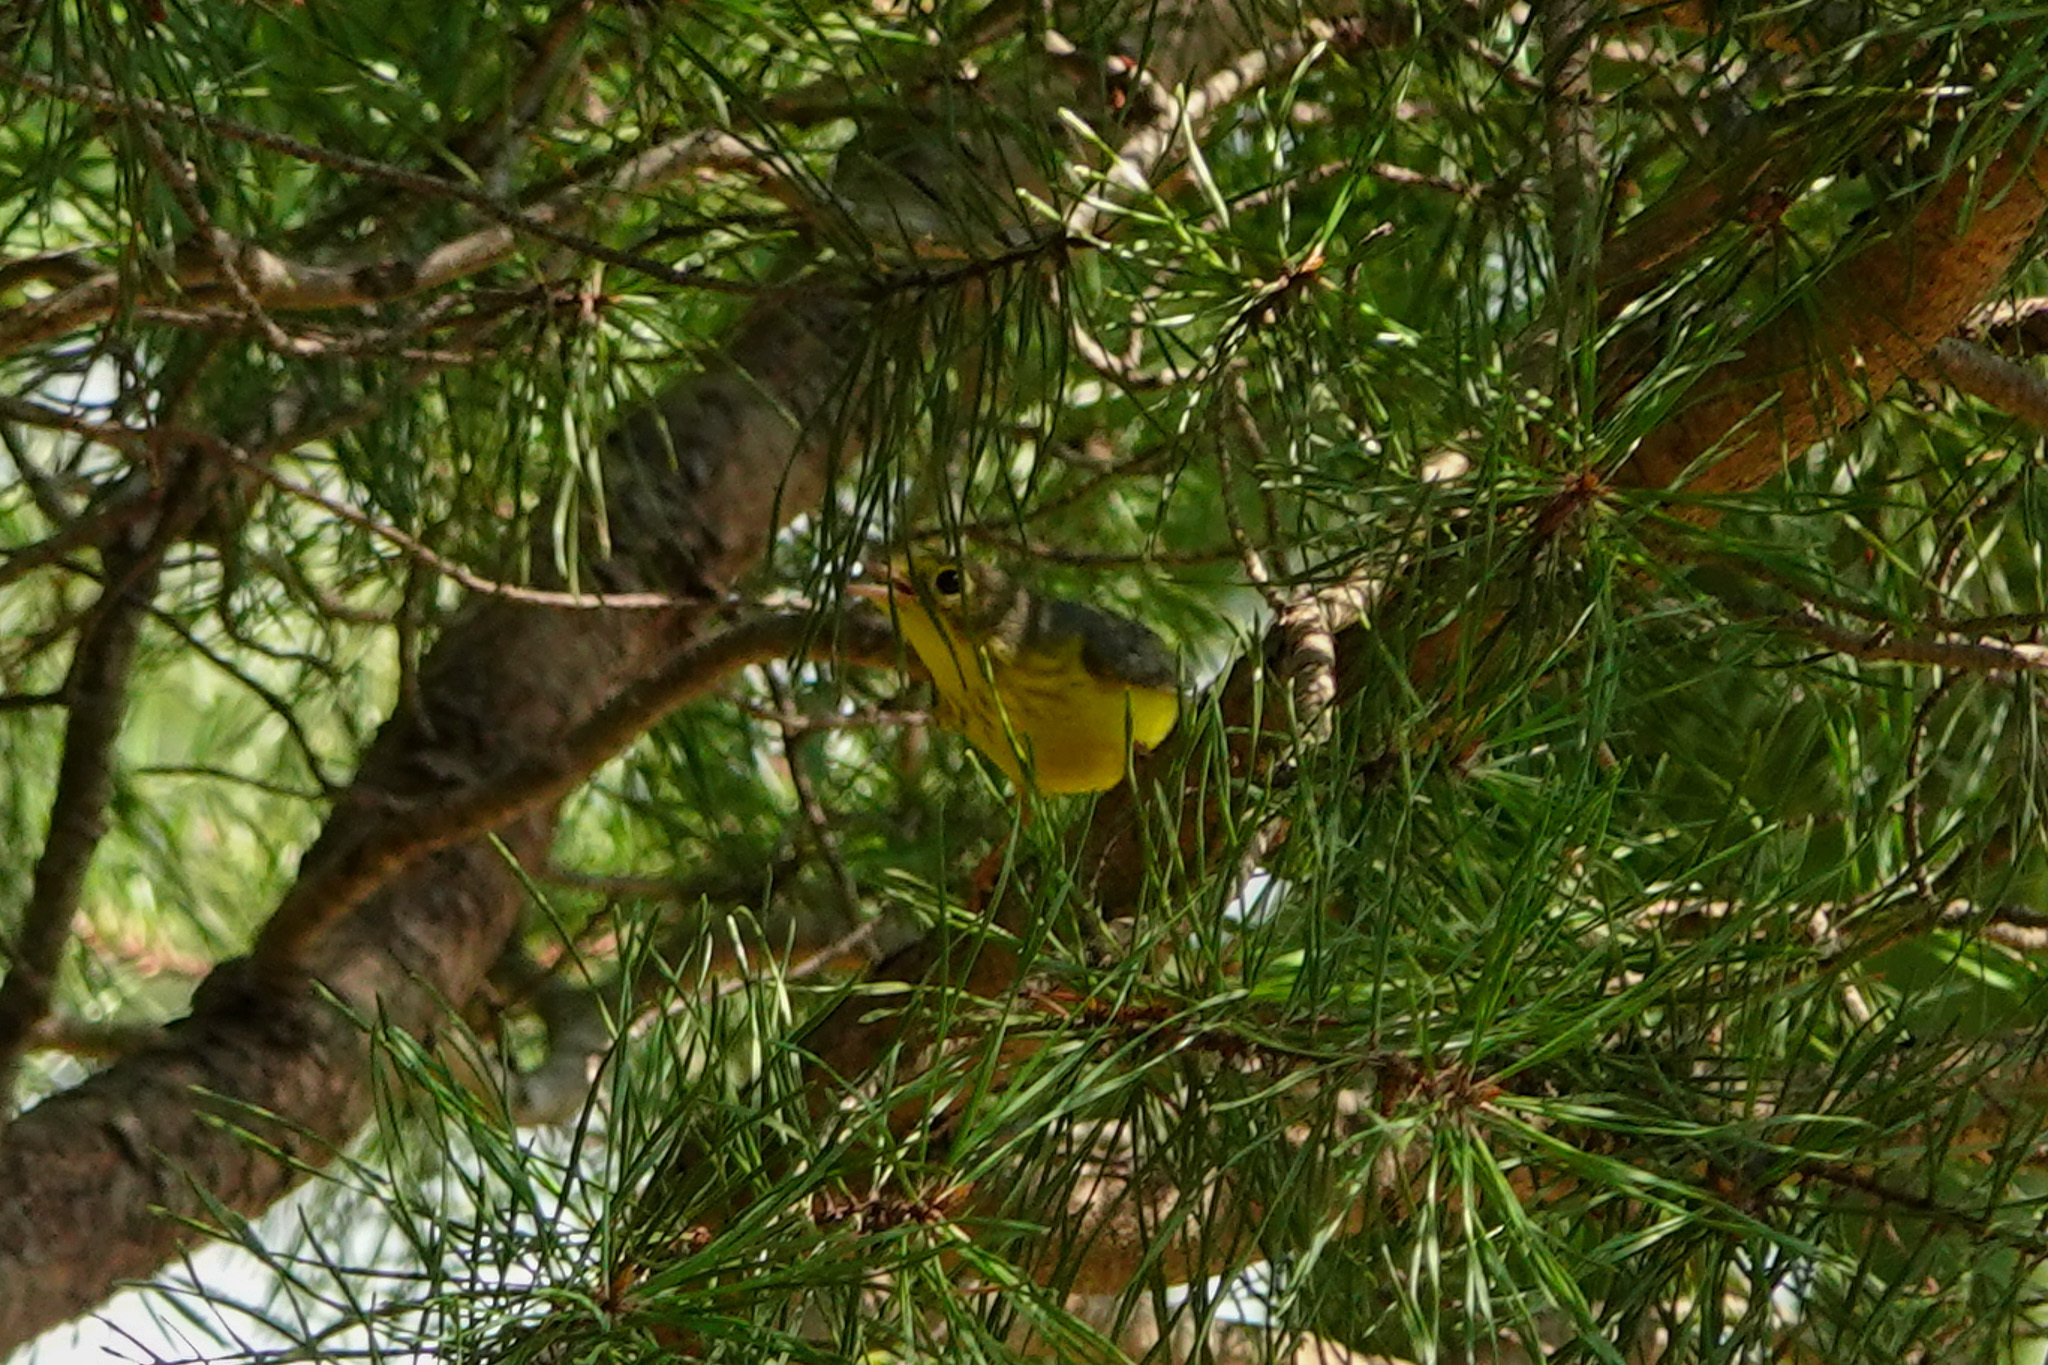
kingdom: Animalia
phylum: Chordata
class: Aves
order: Passeriformes
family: Parulidae
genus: Cardellina
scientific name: Cardellina canadensis
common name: Canada warbler
